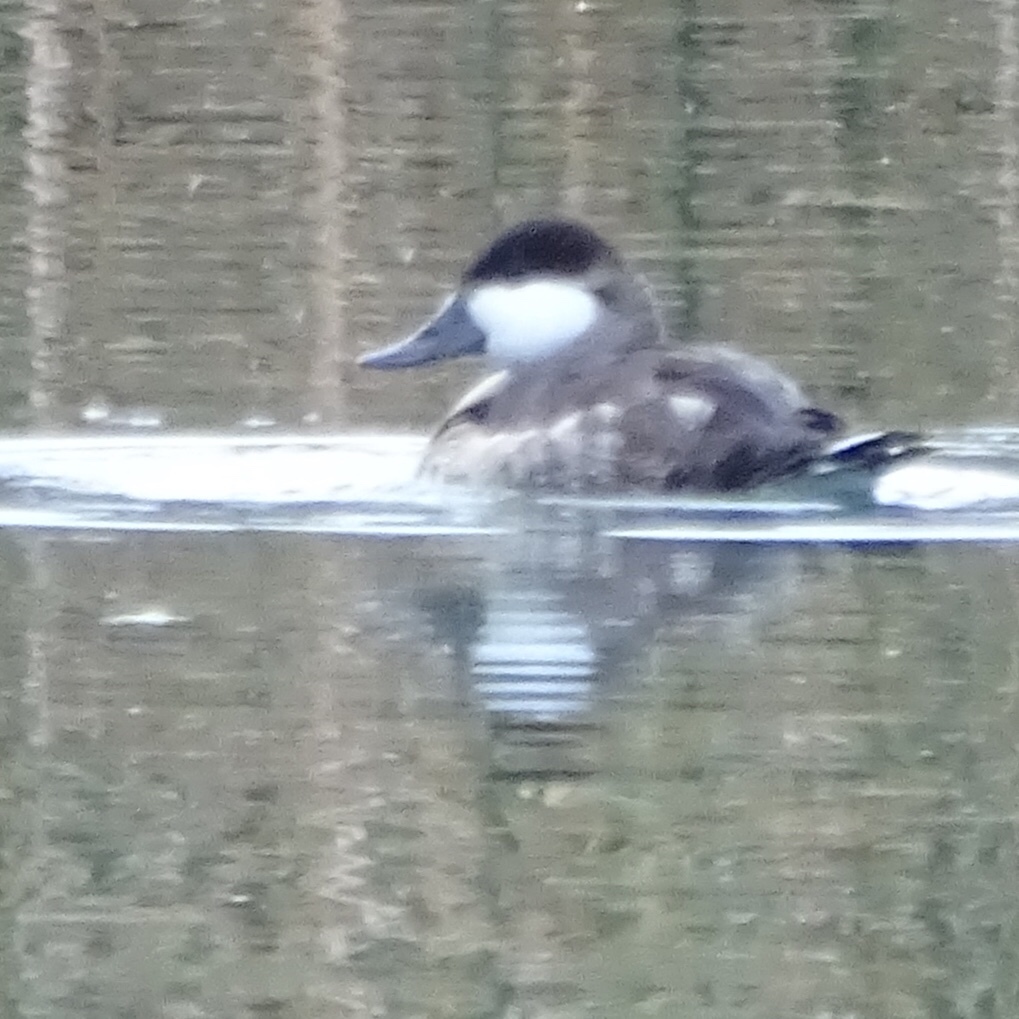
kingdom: Animalia
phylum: Chordata
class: Aves
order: Anseriformes
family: Anatidae
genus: Oxyura
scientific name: Oxyura jamaicensis
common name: Ruddy duck
